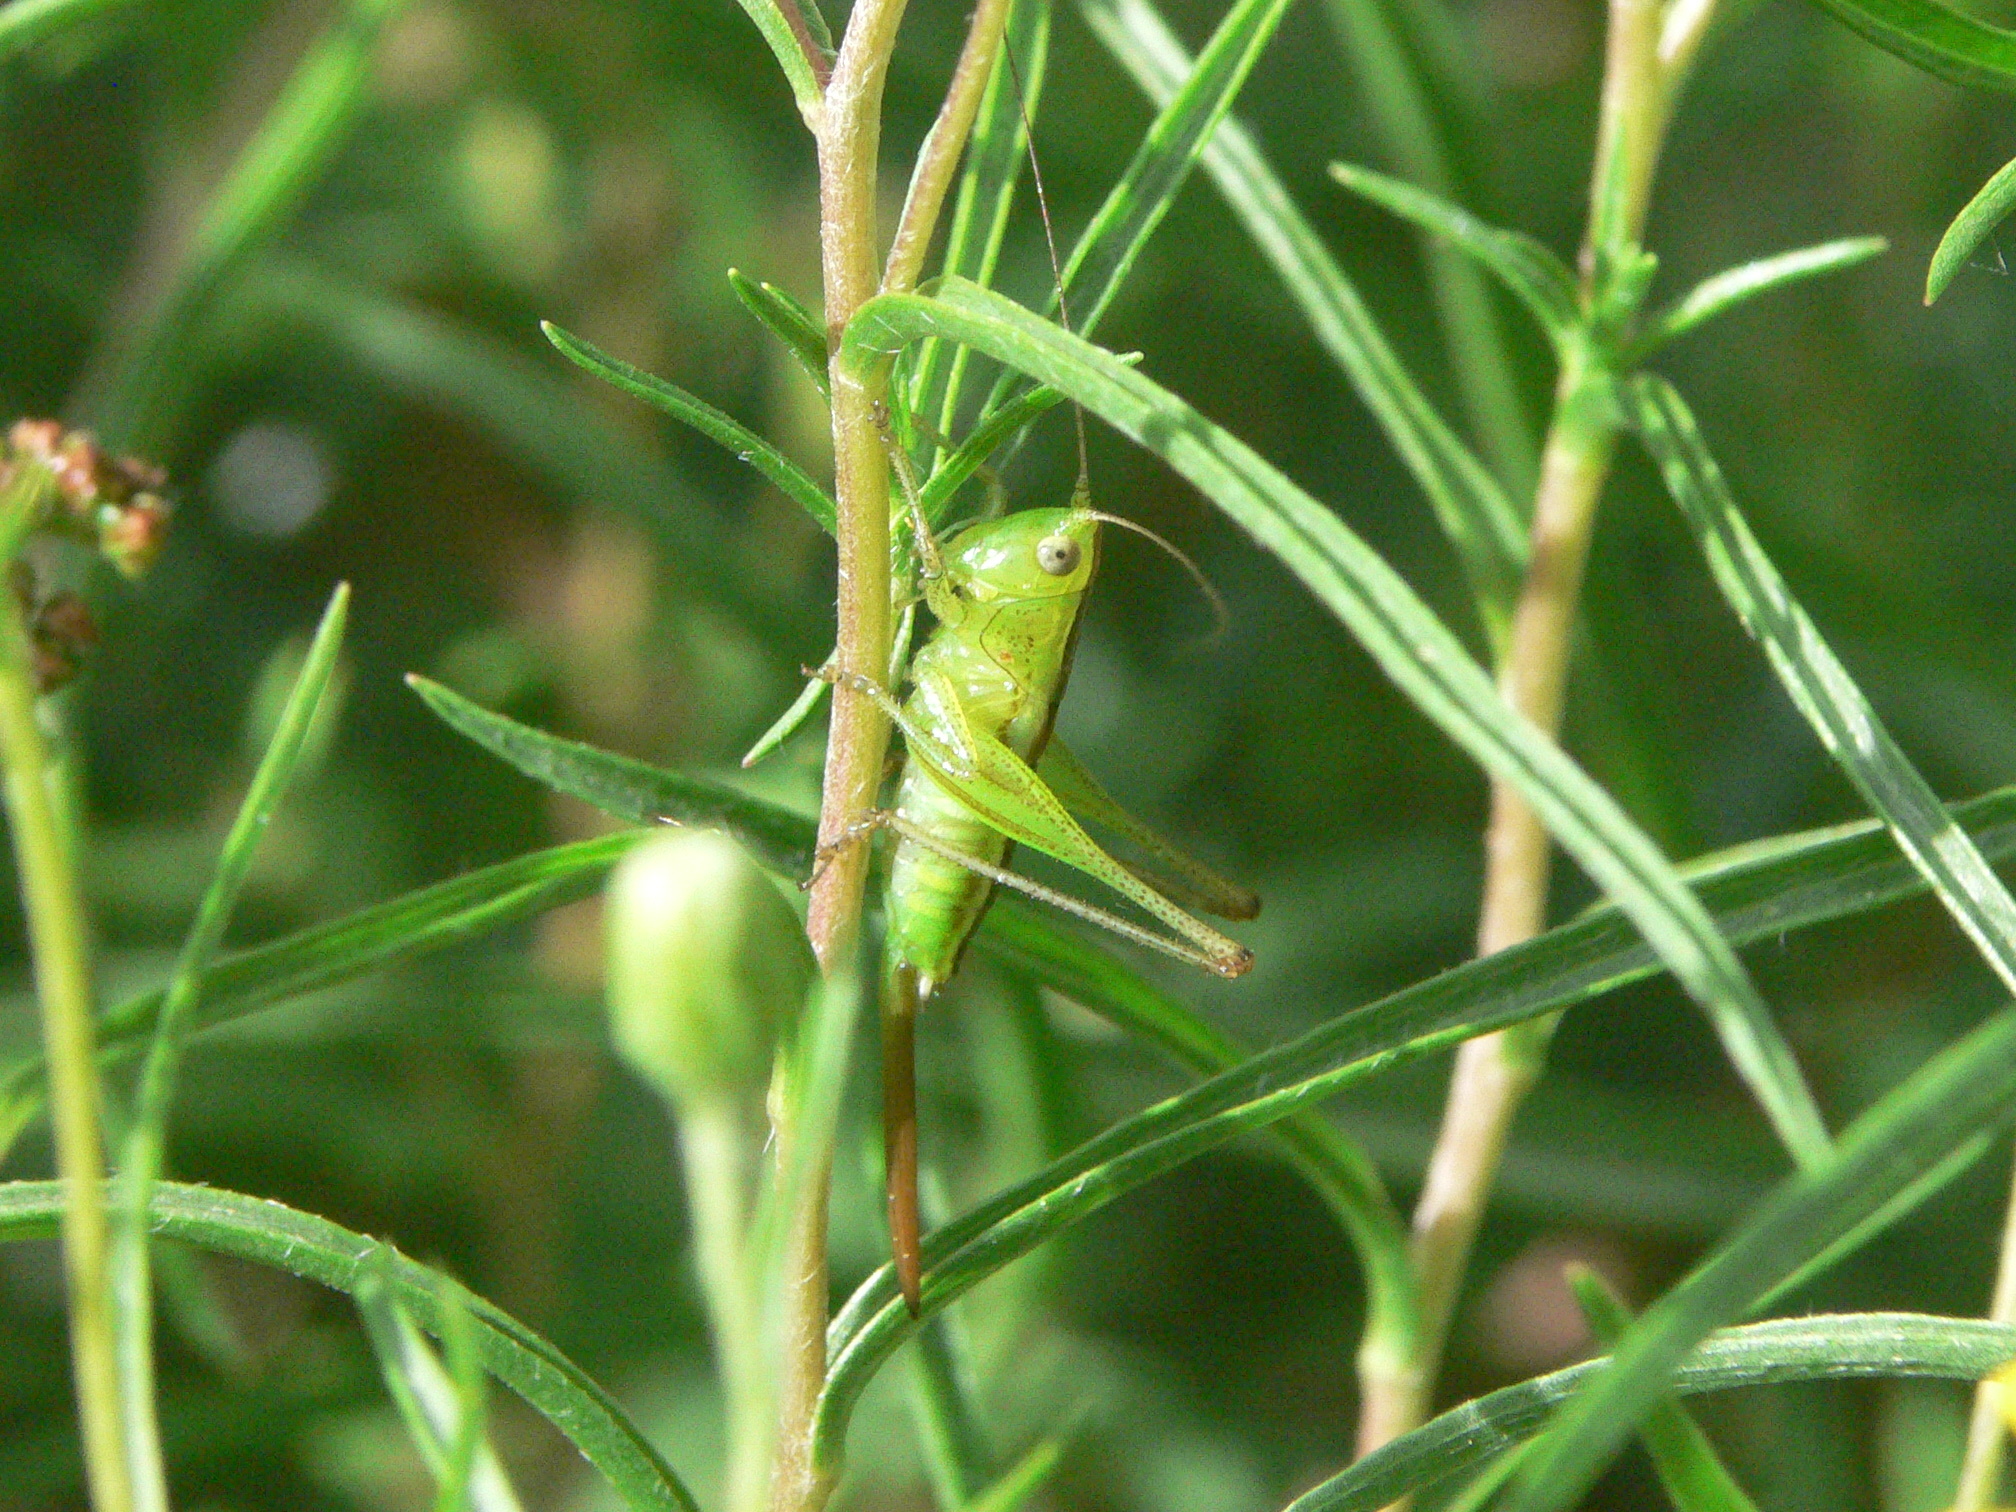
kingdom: Animalia
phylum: Arthropoda
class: Insecta
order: Orthoptera
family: Tettigoniidae
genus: Conocephalus
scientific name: Conocephalus brevipennis
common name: Short-winged meadow katydid
